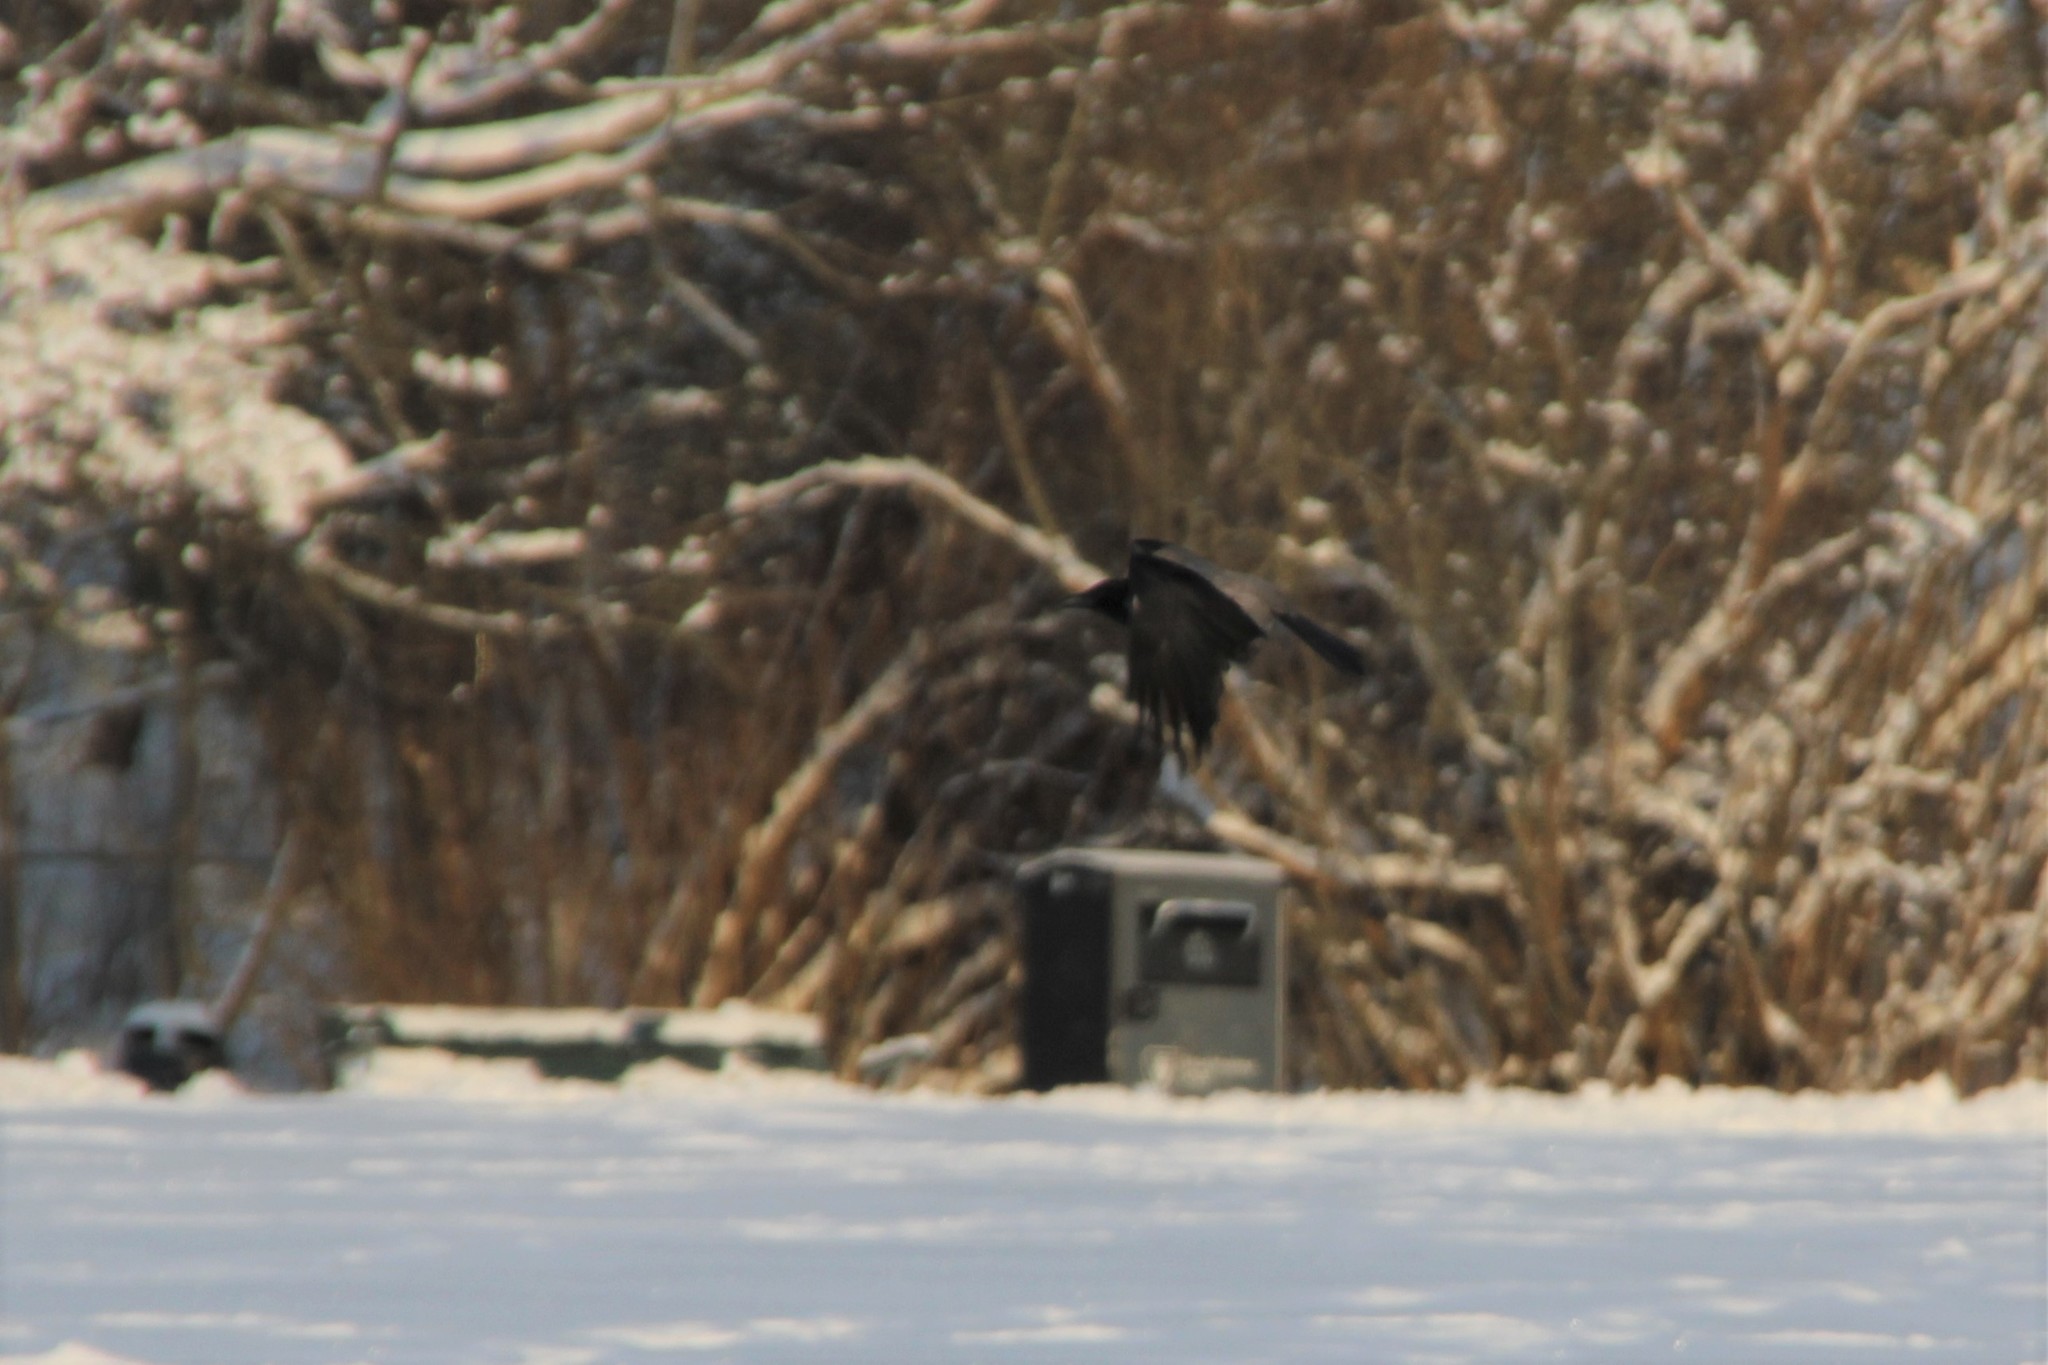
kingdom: Animalia
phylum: Chordata
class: Aves
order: Passeriformes
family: Corvidae
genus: Corvus
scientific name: Corvus cornix
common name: Hooded crow
